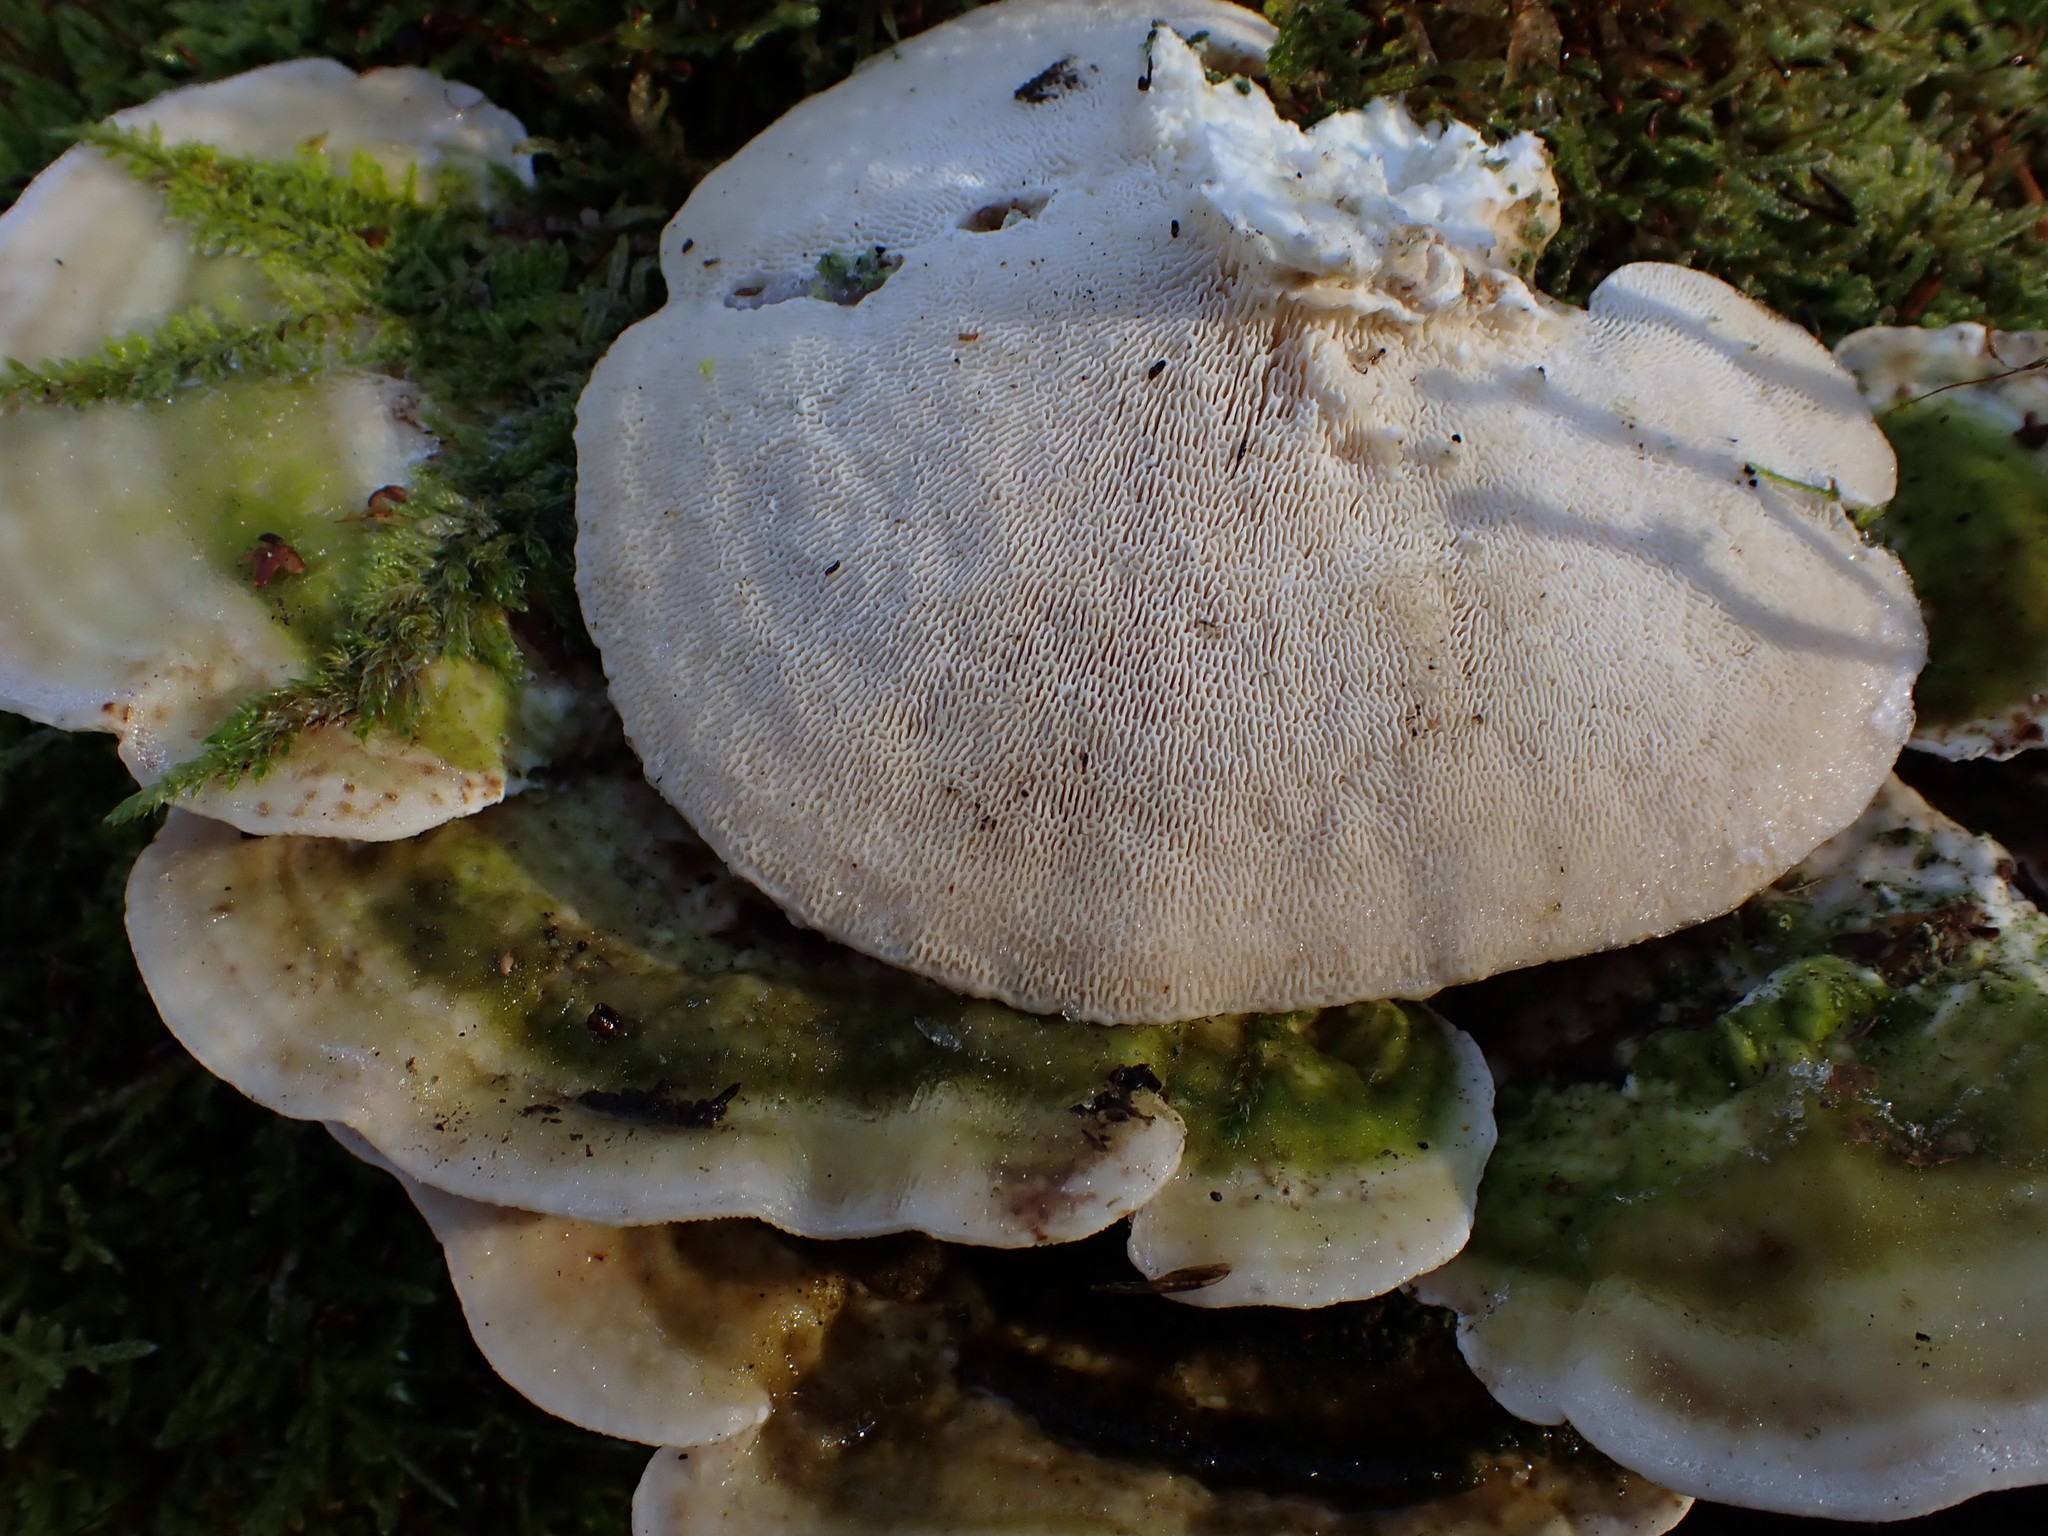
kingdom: Fungi
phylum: Basidiomycota
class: Agaricomycetes
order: Polyporales
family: Polyporaceae
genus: Trametes
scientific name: Trametes gibbosa
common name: Lumpy bracket
